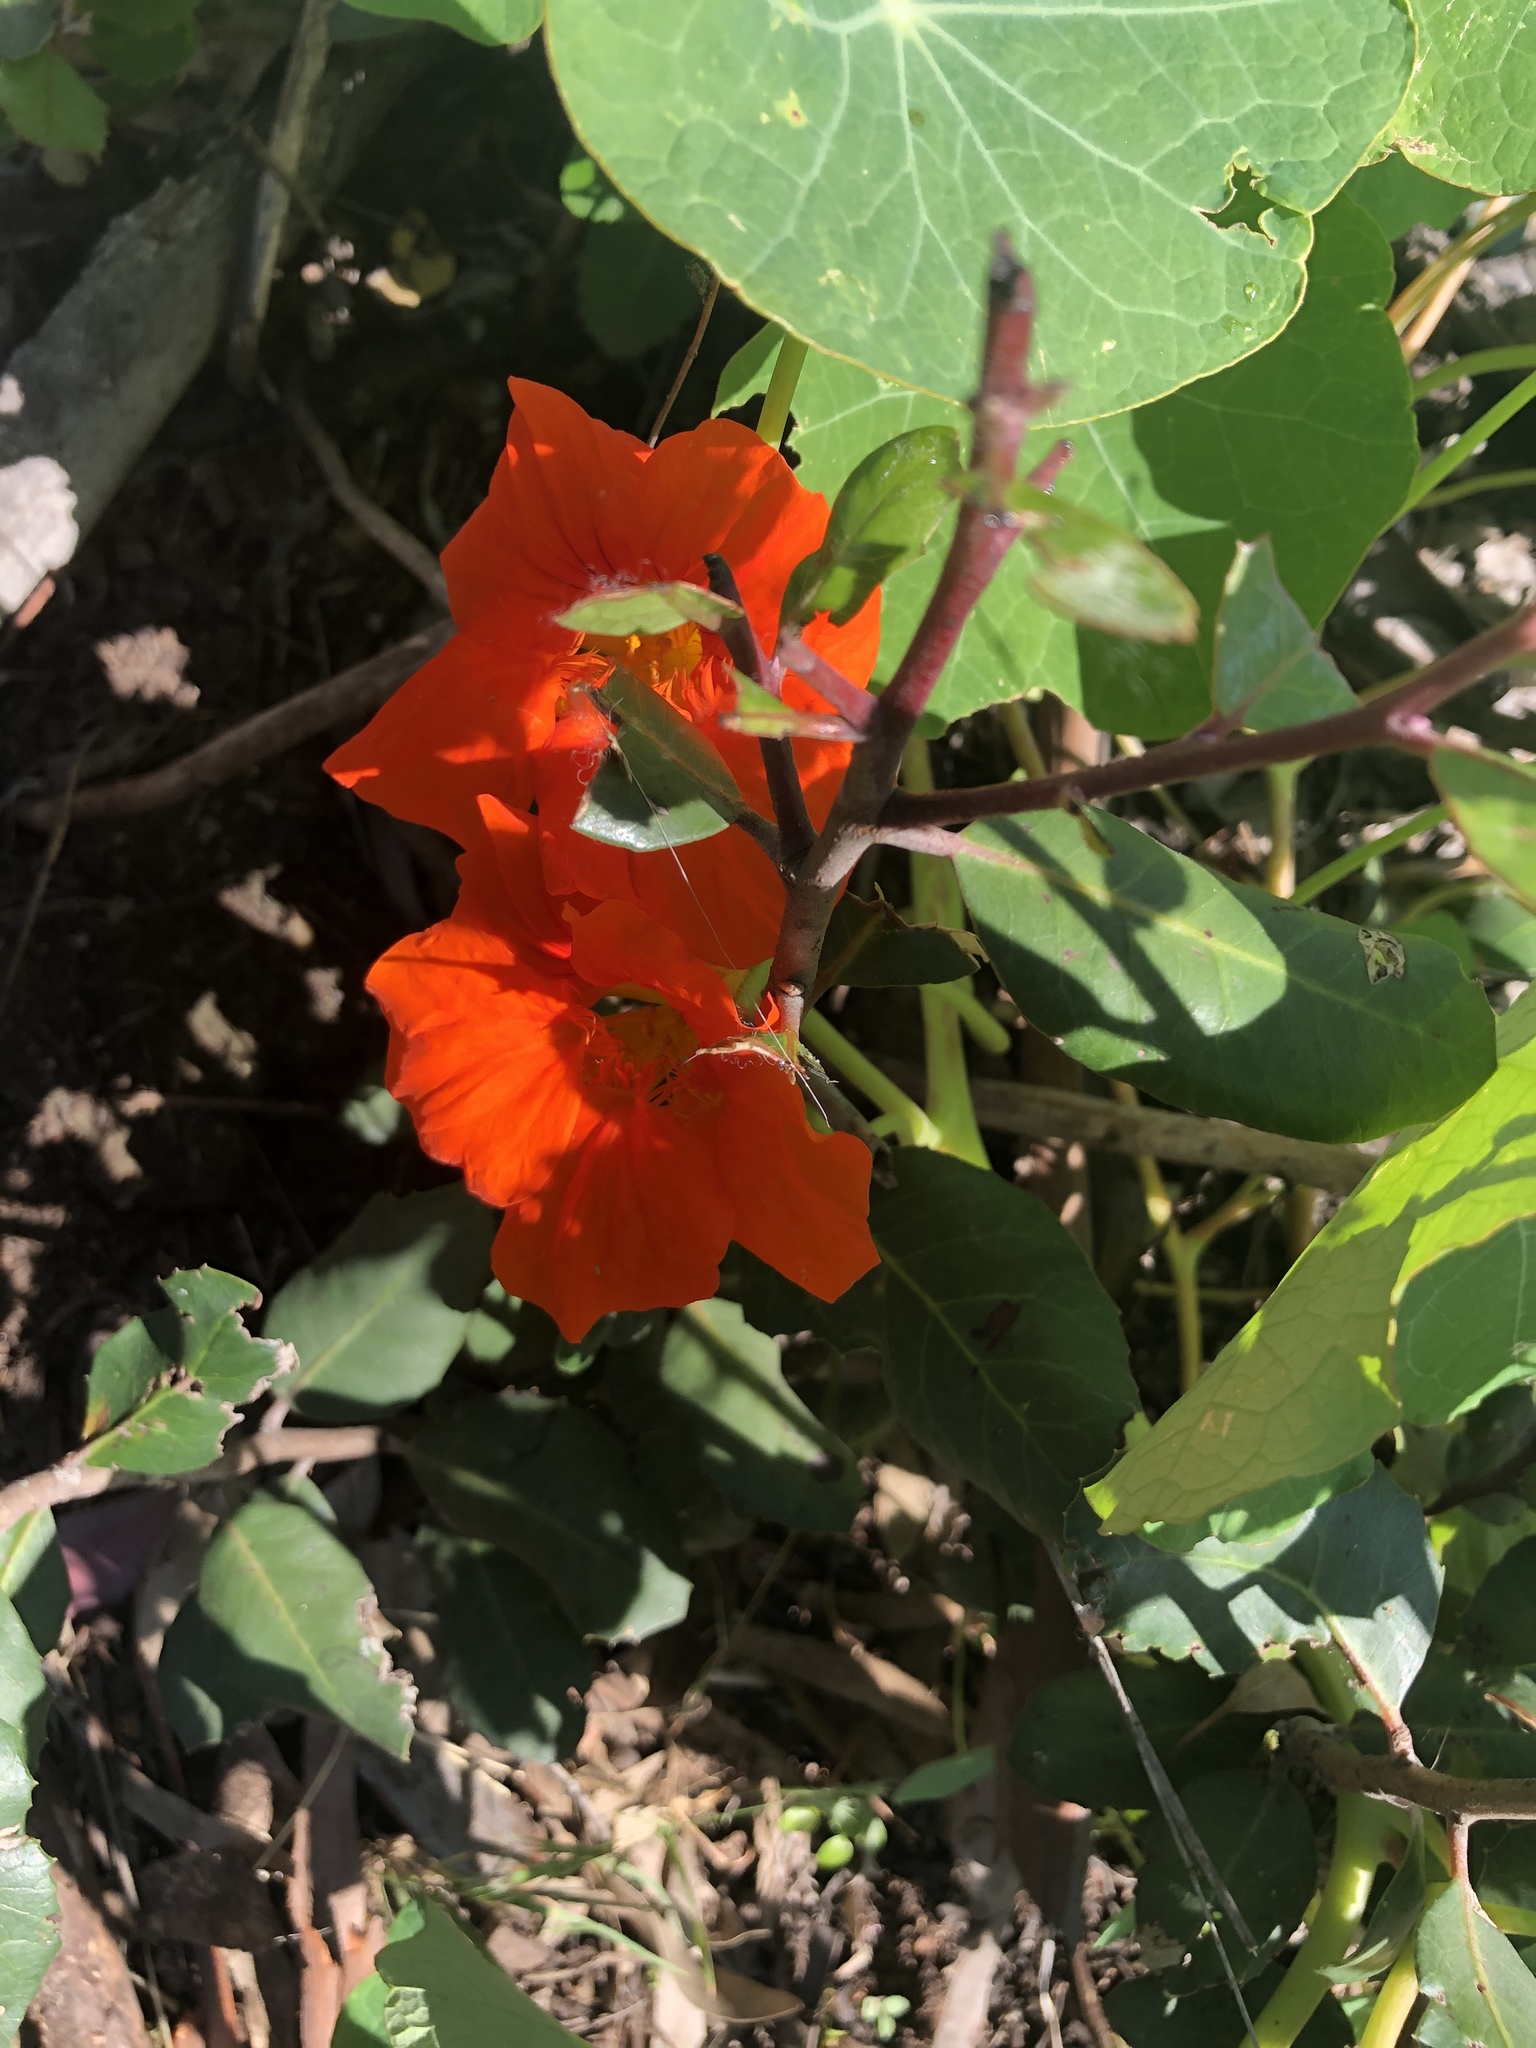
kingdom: Plantae
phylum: Tracheophyta
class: Magnoliopsida
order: Brassicales
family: Tropaeolaceae
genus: Tropaeolum
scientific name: Tropaeolum majus
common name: Nasturtium
